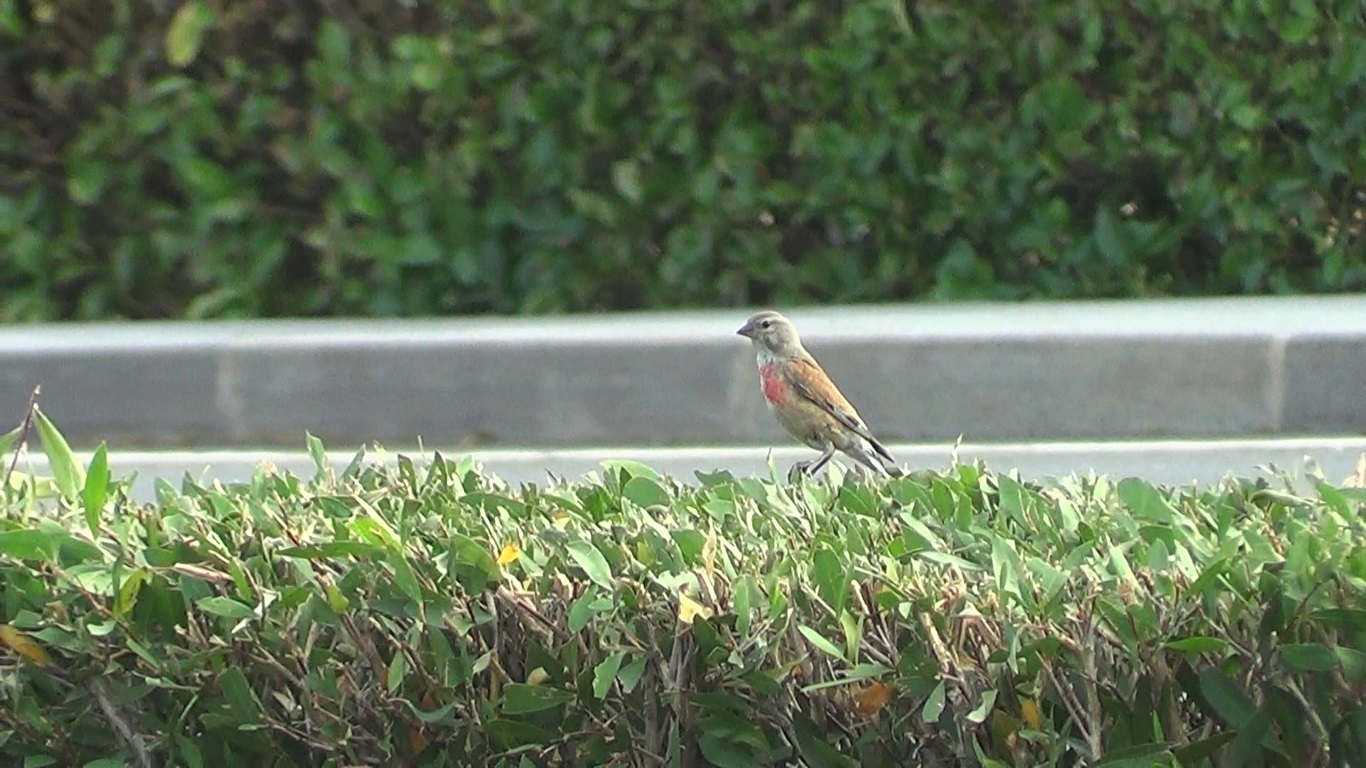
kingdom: Animalia
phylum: Chordata
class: Aves
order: Passeriformes
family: Fringillidae
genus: Linaria
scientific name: Linaria cannabina
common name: Common linnet
